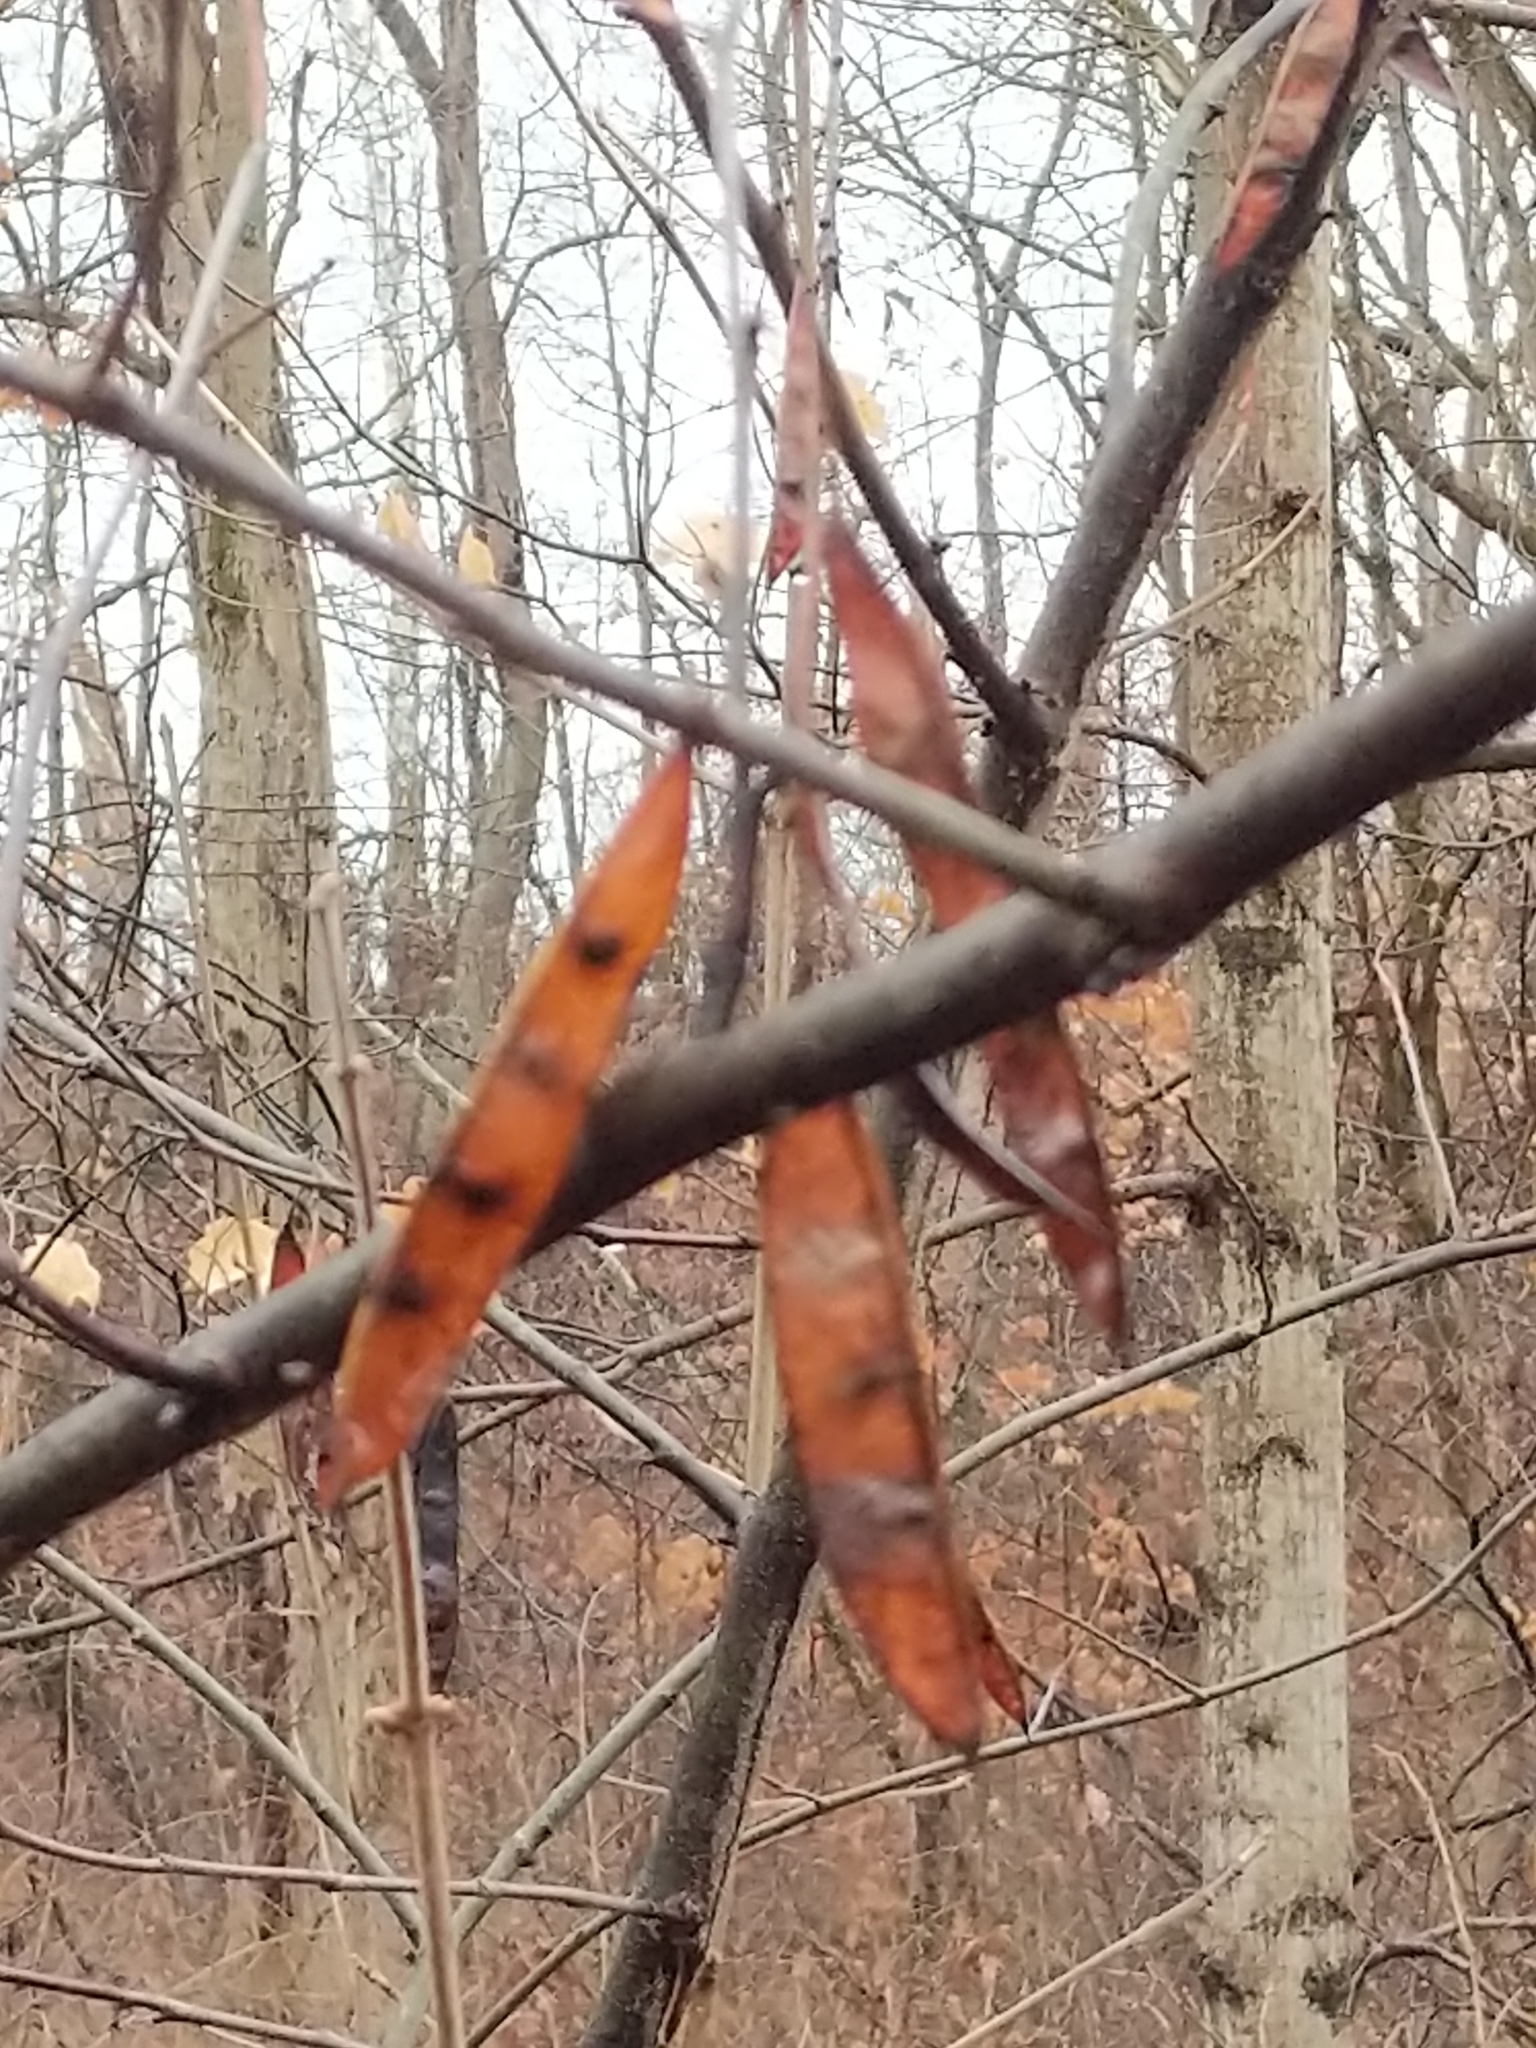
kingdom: Plantae
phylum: Tracheophyta
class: Magnoliopsida
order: Fabales
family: Fabaceae
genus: Cercis
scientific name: Cercis canadensis
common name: Eastern redbud
